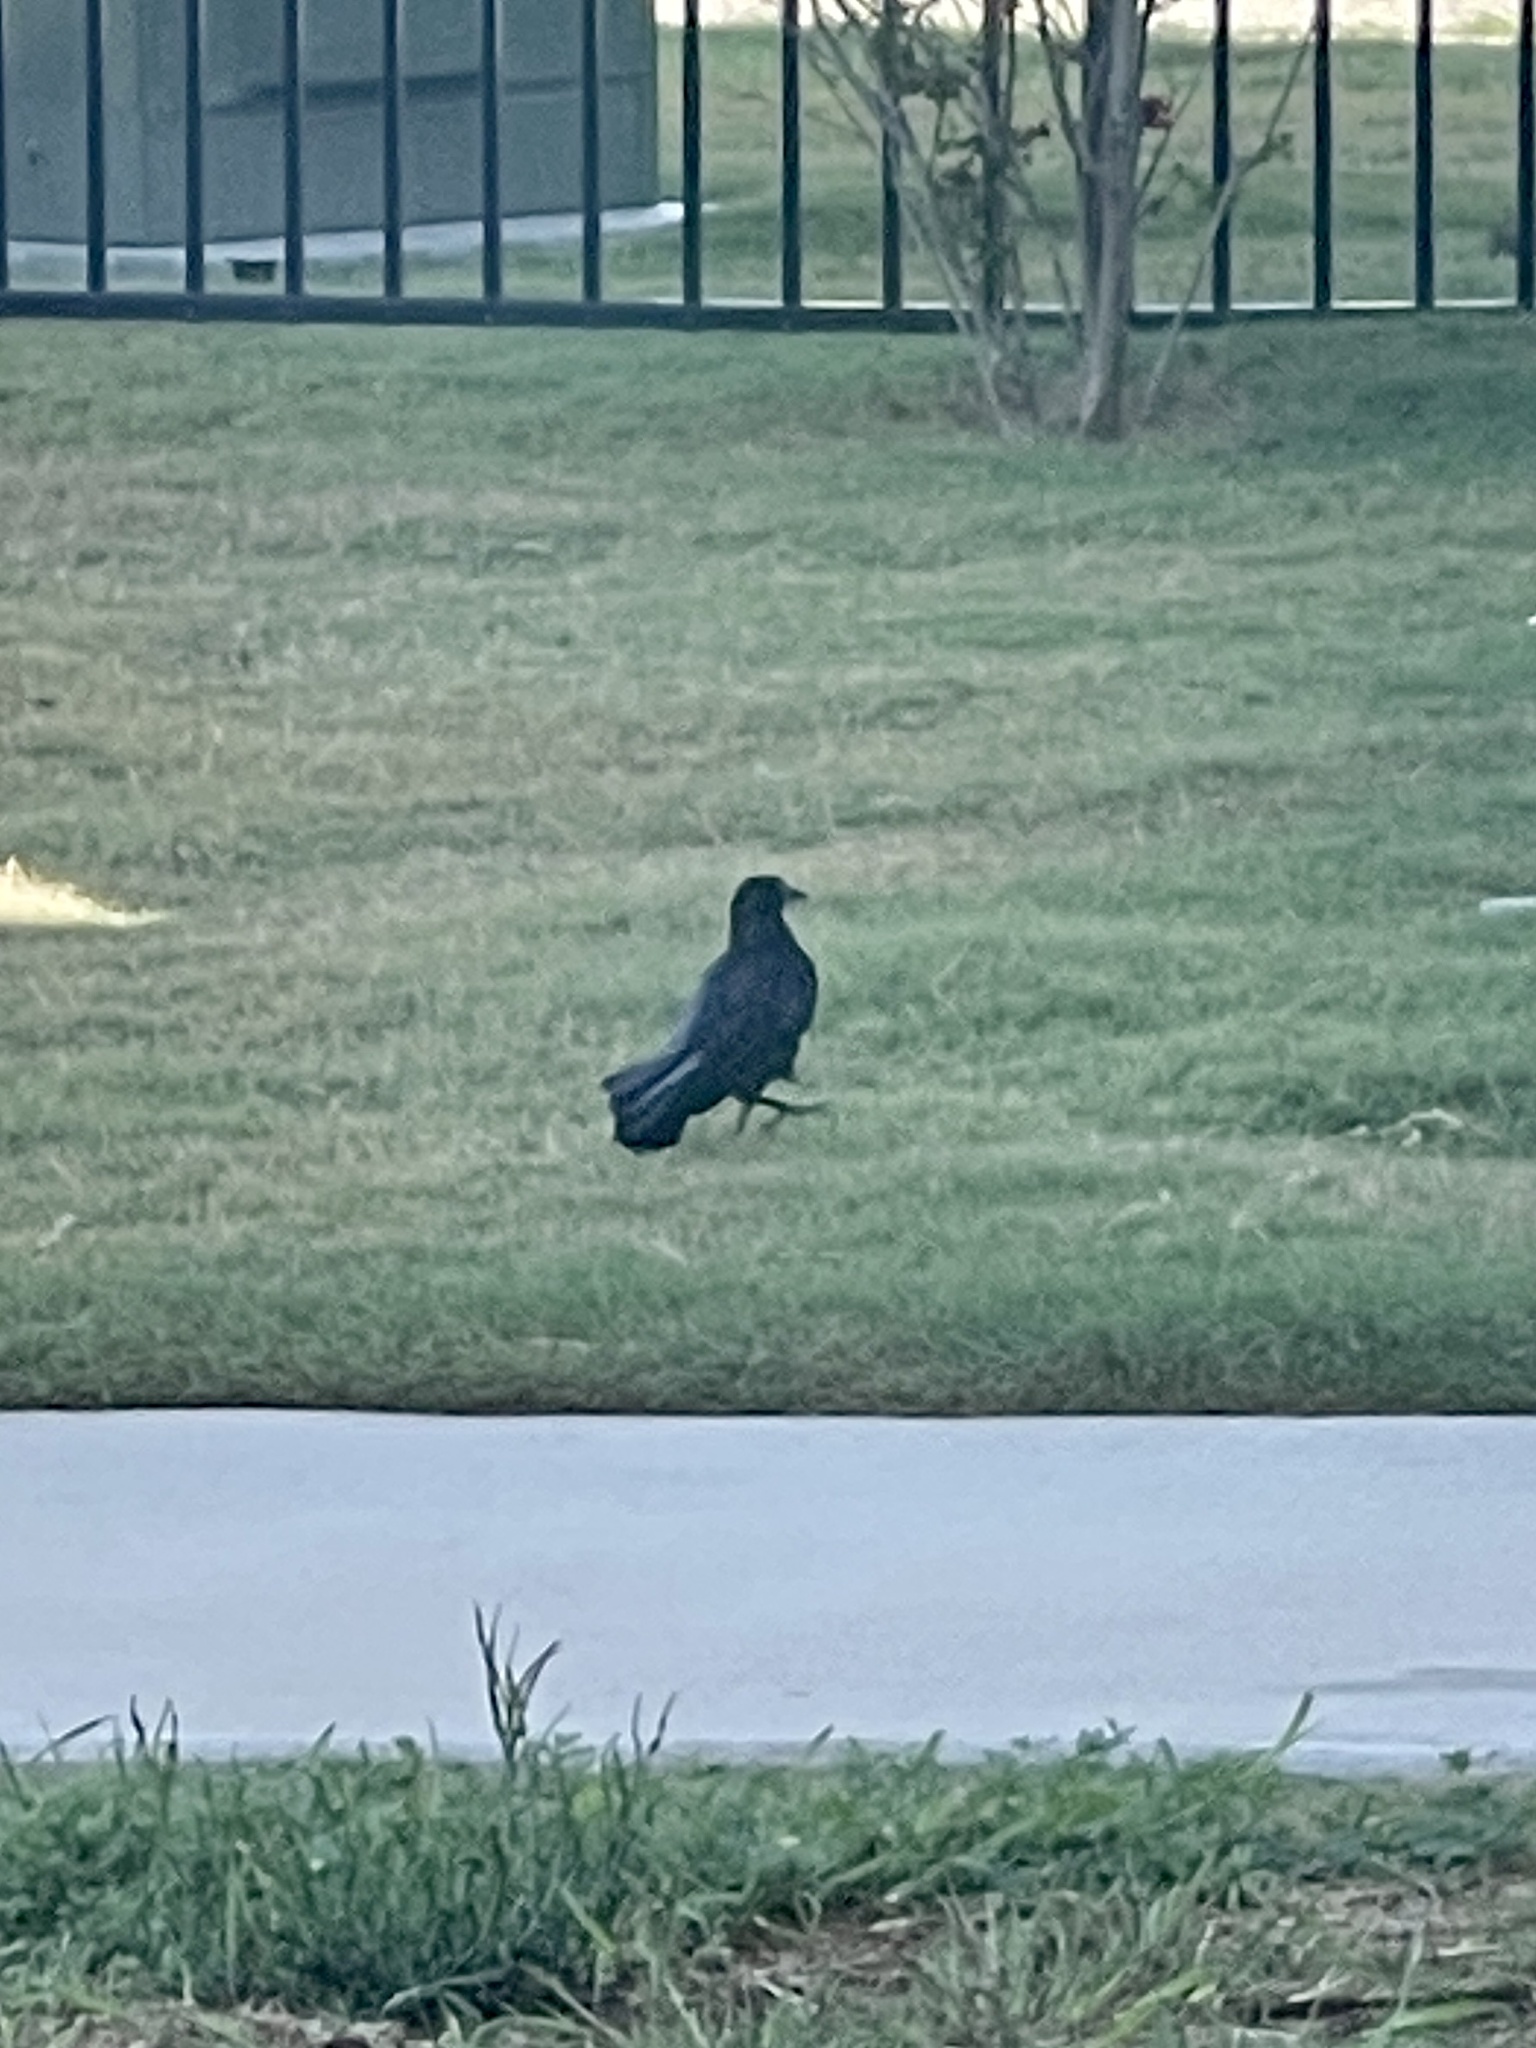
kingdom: Animalia
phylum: Chordata
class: Aves
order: Passeriformes
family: Icteridae
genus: Quiscalus
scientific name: Quiscalus mexicanus
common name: Great-tailed grackle
